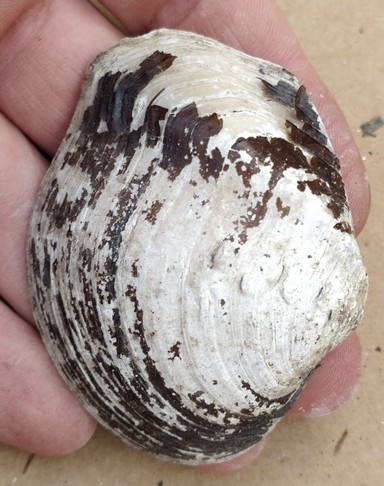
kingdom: Animalia
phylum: Mollusca
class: Bivalvia
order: Unionida
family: Unionidae
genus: Quadrula
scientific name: Quadrula quadrula
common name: Mapleleaf
